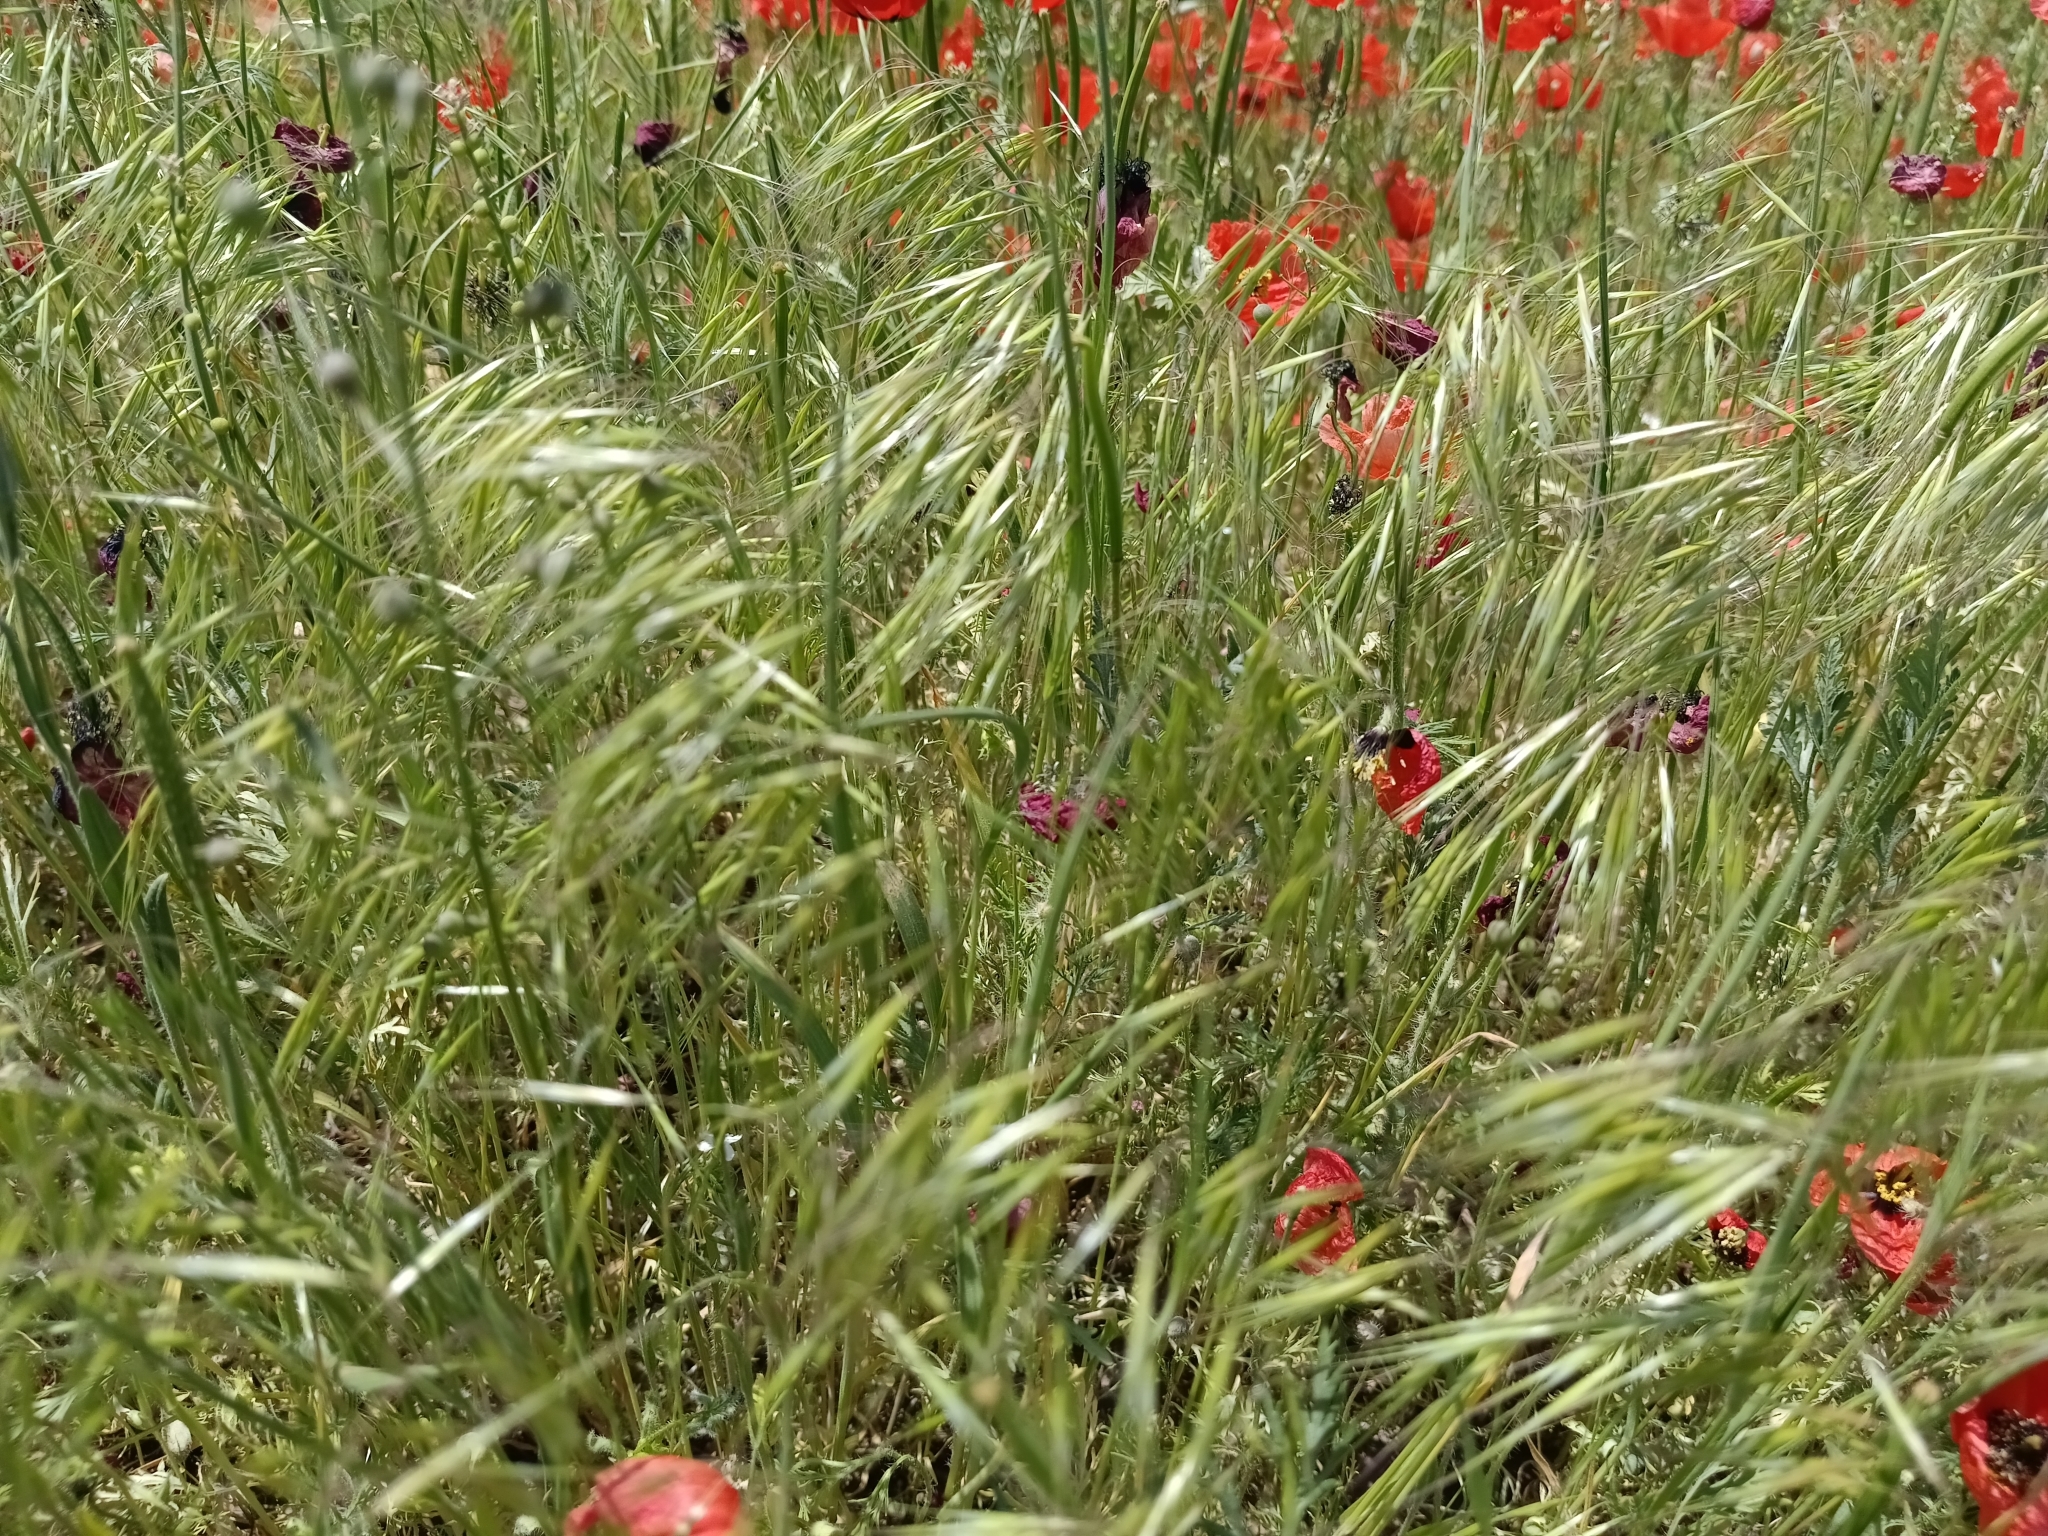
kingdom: Plantae
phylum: Tracheophyta
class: Liliopsida
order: Poales
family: Poaceae
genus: Bromus
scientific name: Bromus tectorum
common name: Cheatgrass
